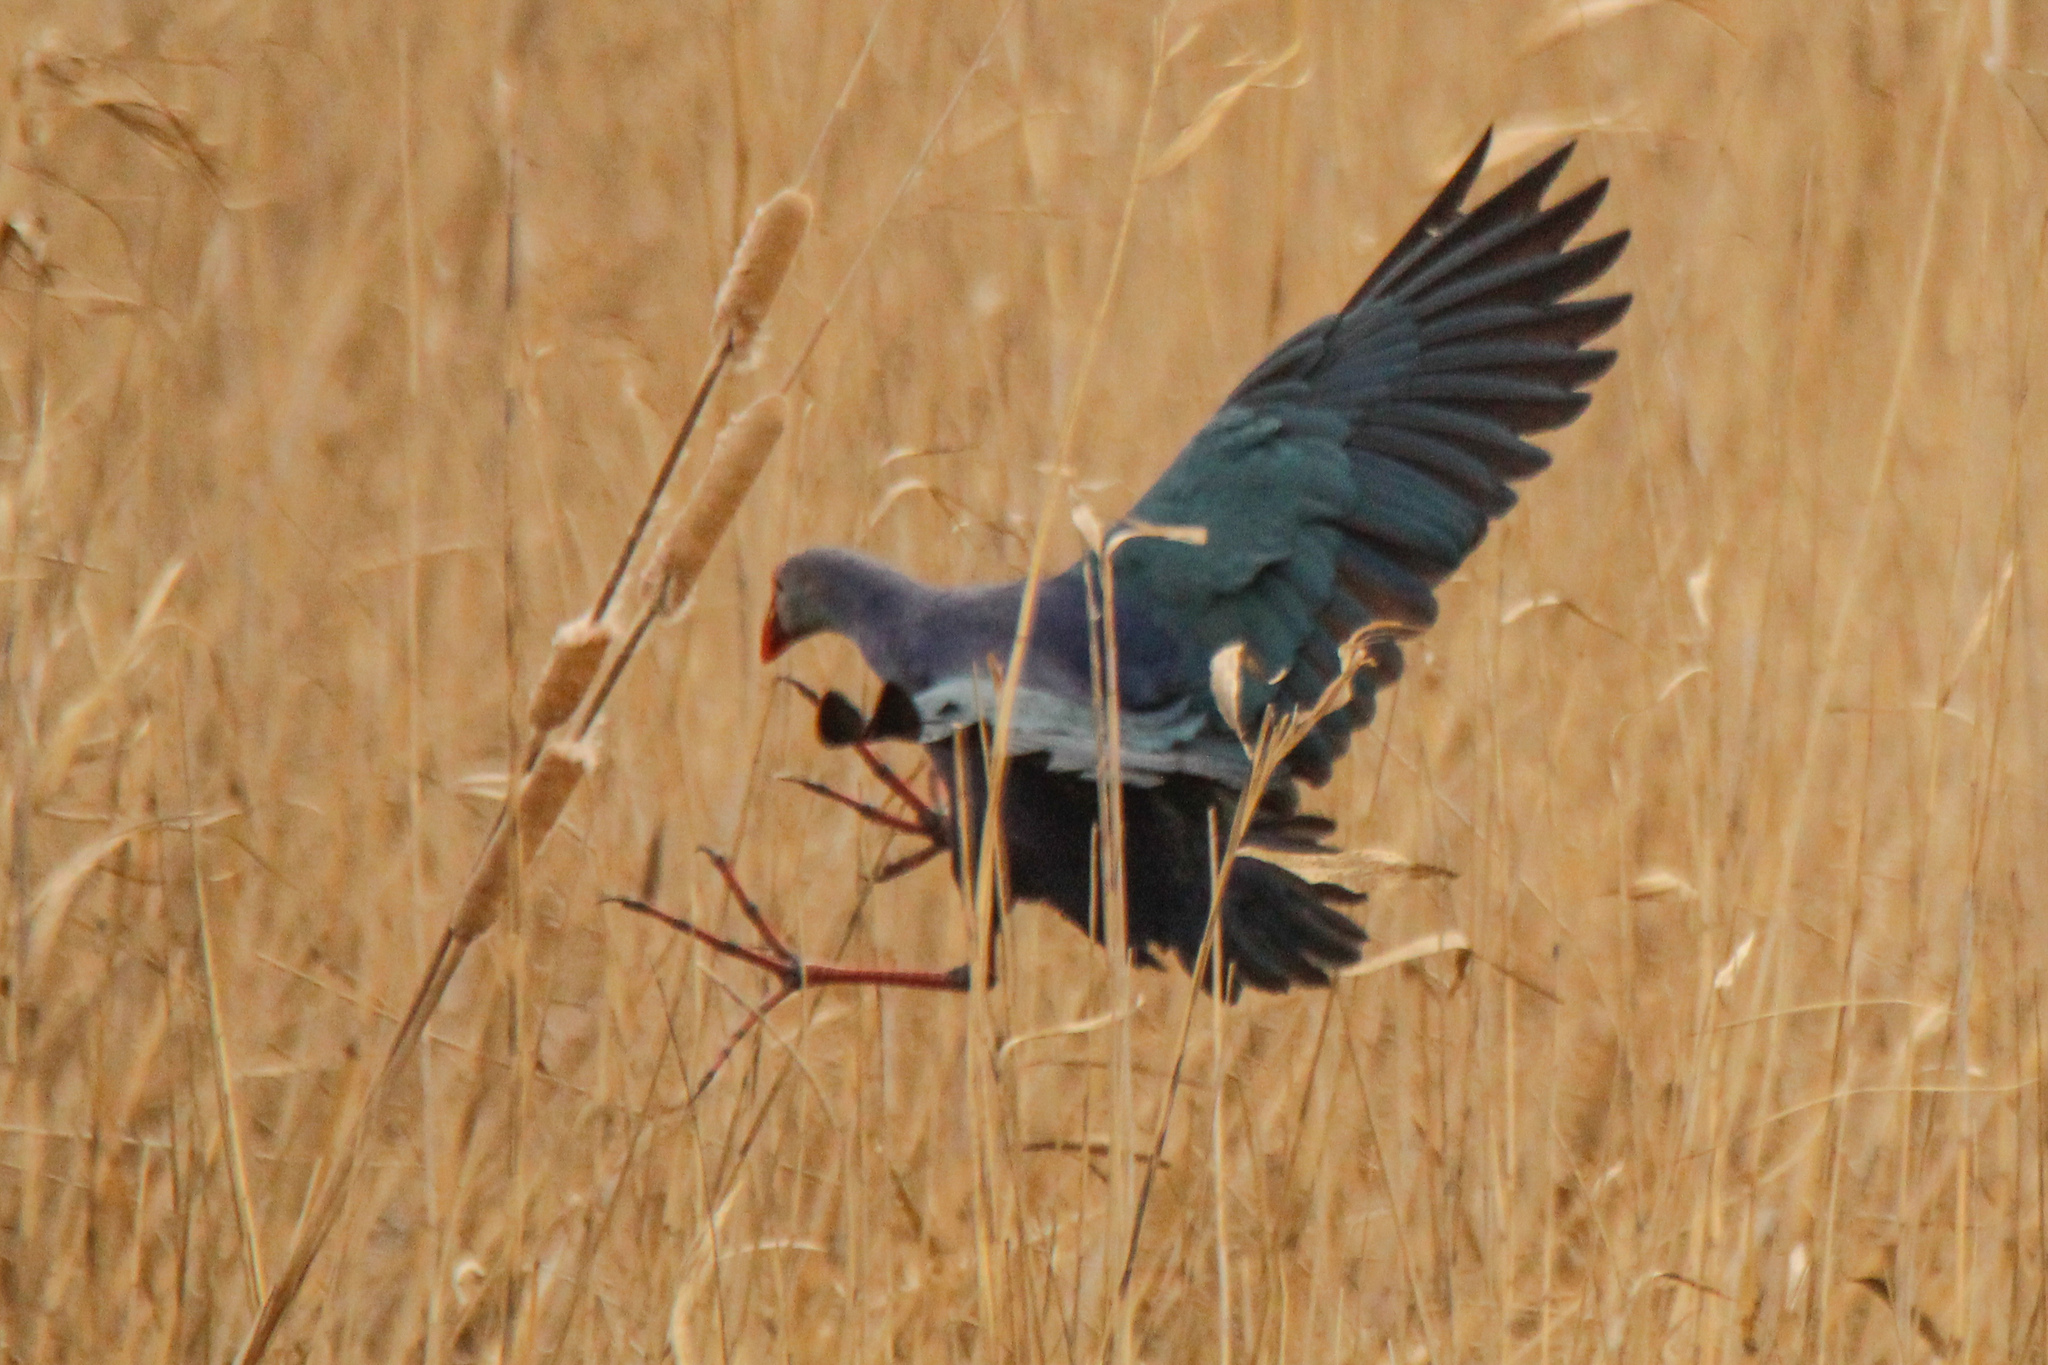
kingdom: Animalia
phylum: Chordata
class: Aves
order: Gruiformes
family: Rallidae
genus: Porphyrio
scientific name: Porphyrio porphyrio
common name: Purple swamphen
